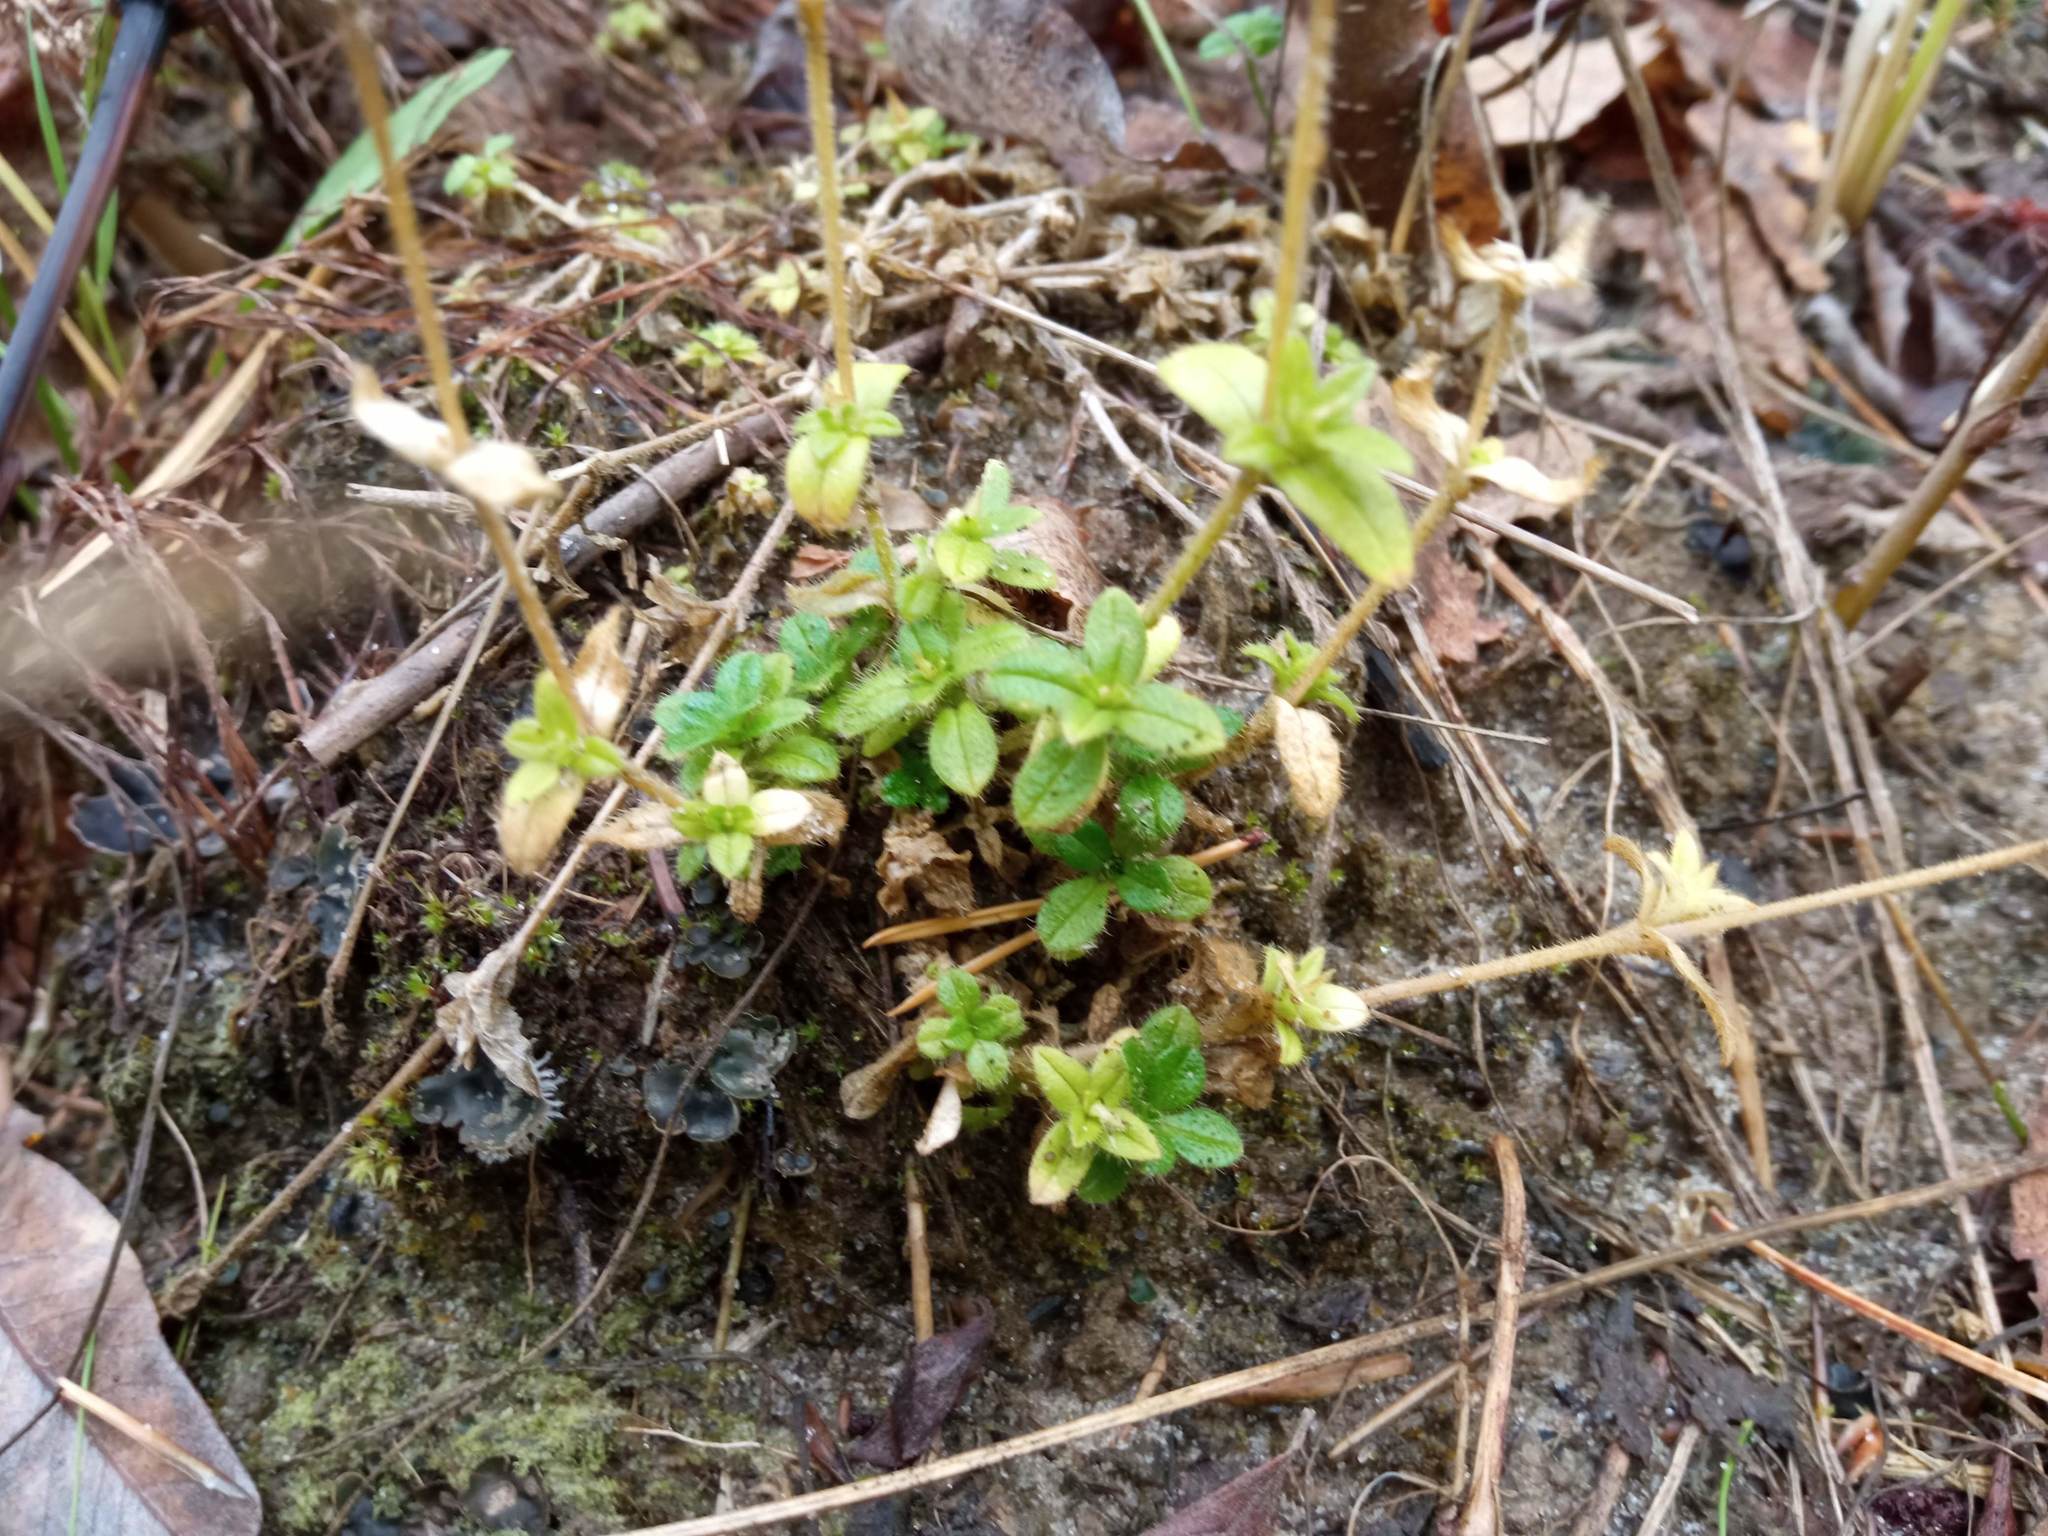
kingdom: Plantae
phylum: Tracheophyta
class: Magnoliopsida
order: Caryophyllales
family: Caryophyllaceae
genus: Cerastium
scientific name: Cerastium holosteoides
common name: Big chickweed
